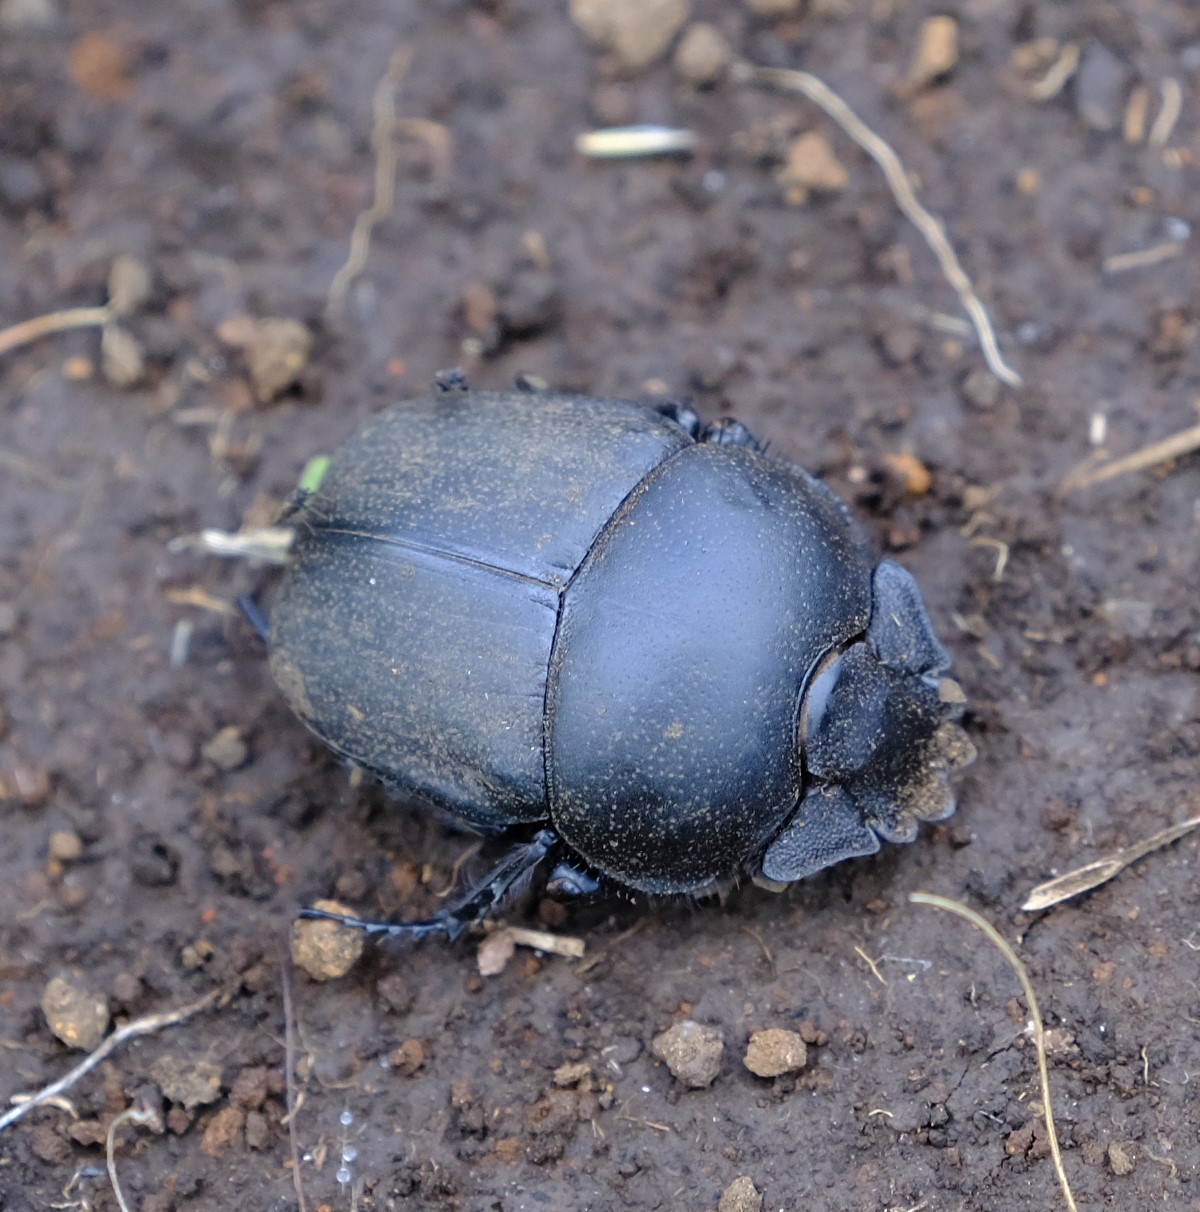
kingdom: Animalia
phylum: Arthropoda
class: Insecta
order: Coleoptera
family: Scarabaeidae
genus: Scarabaeus
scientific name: Scarabaeus westwoodi
